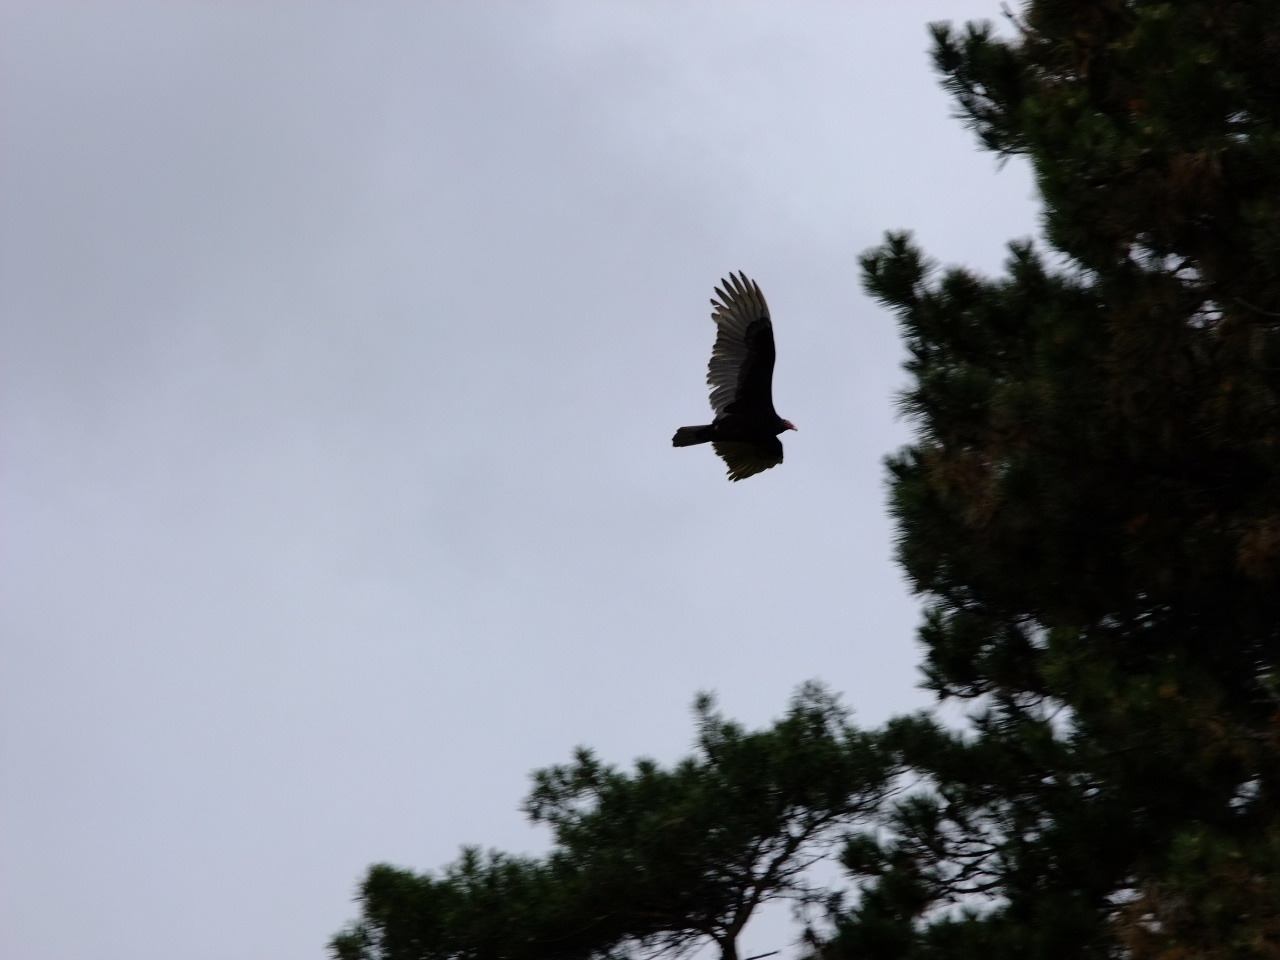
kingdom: Animalia
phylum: Chordata
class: Aves
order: Accipitriformes
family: Cathartidae
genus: Cathartes
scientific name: Cathartes aura
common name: Turkey vulture
